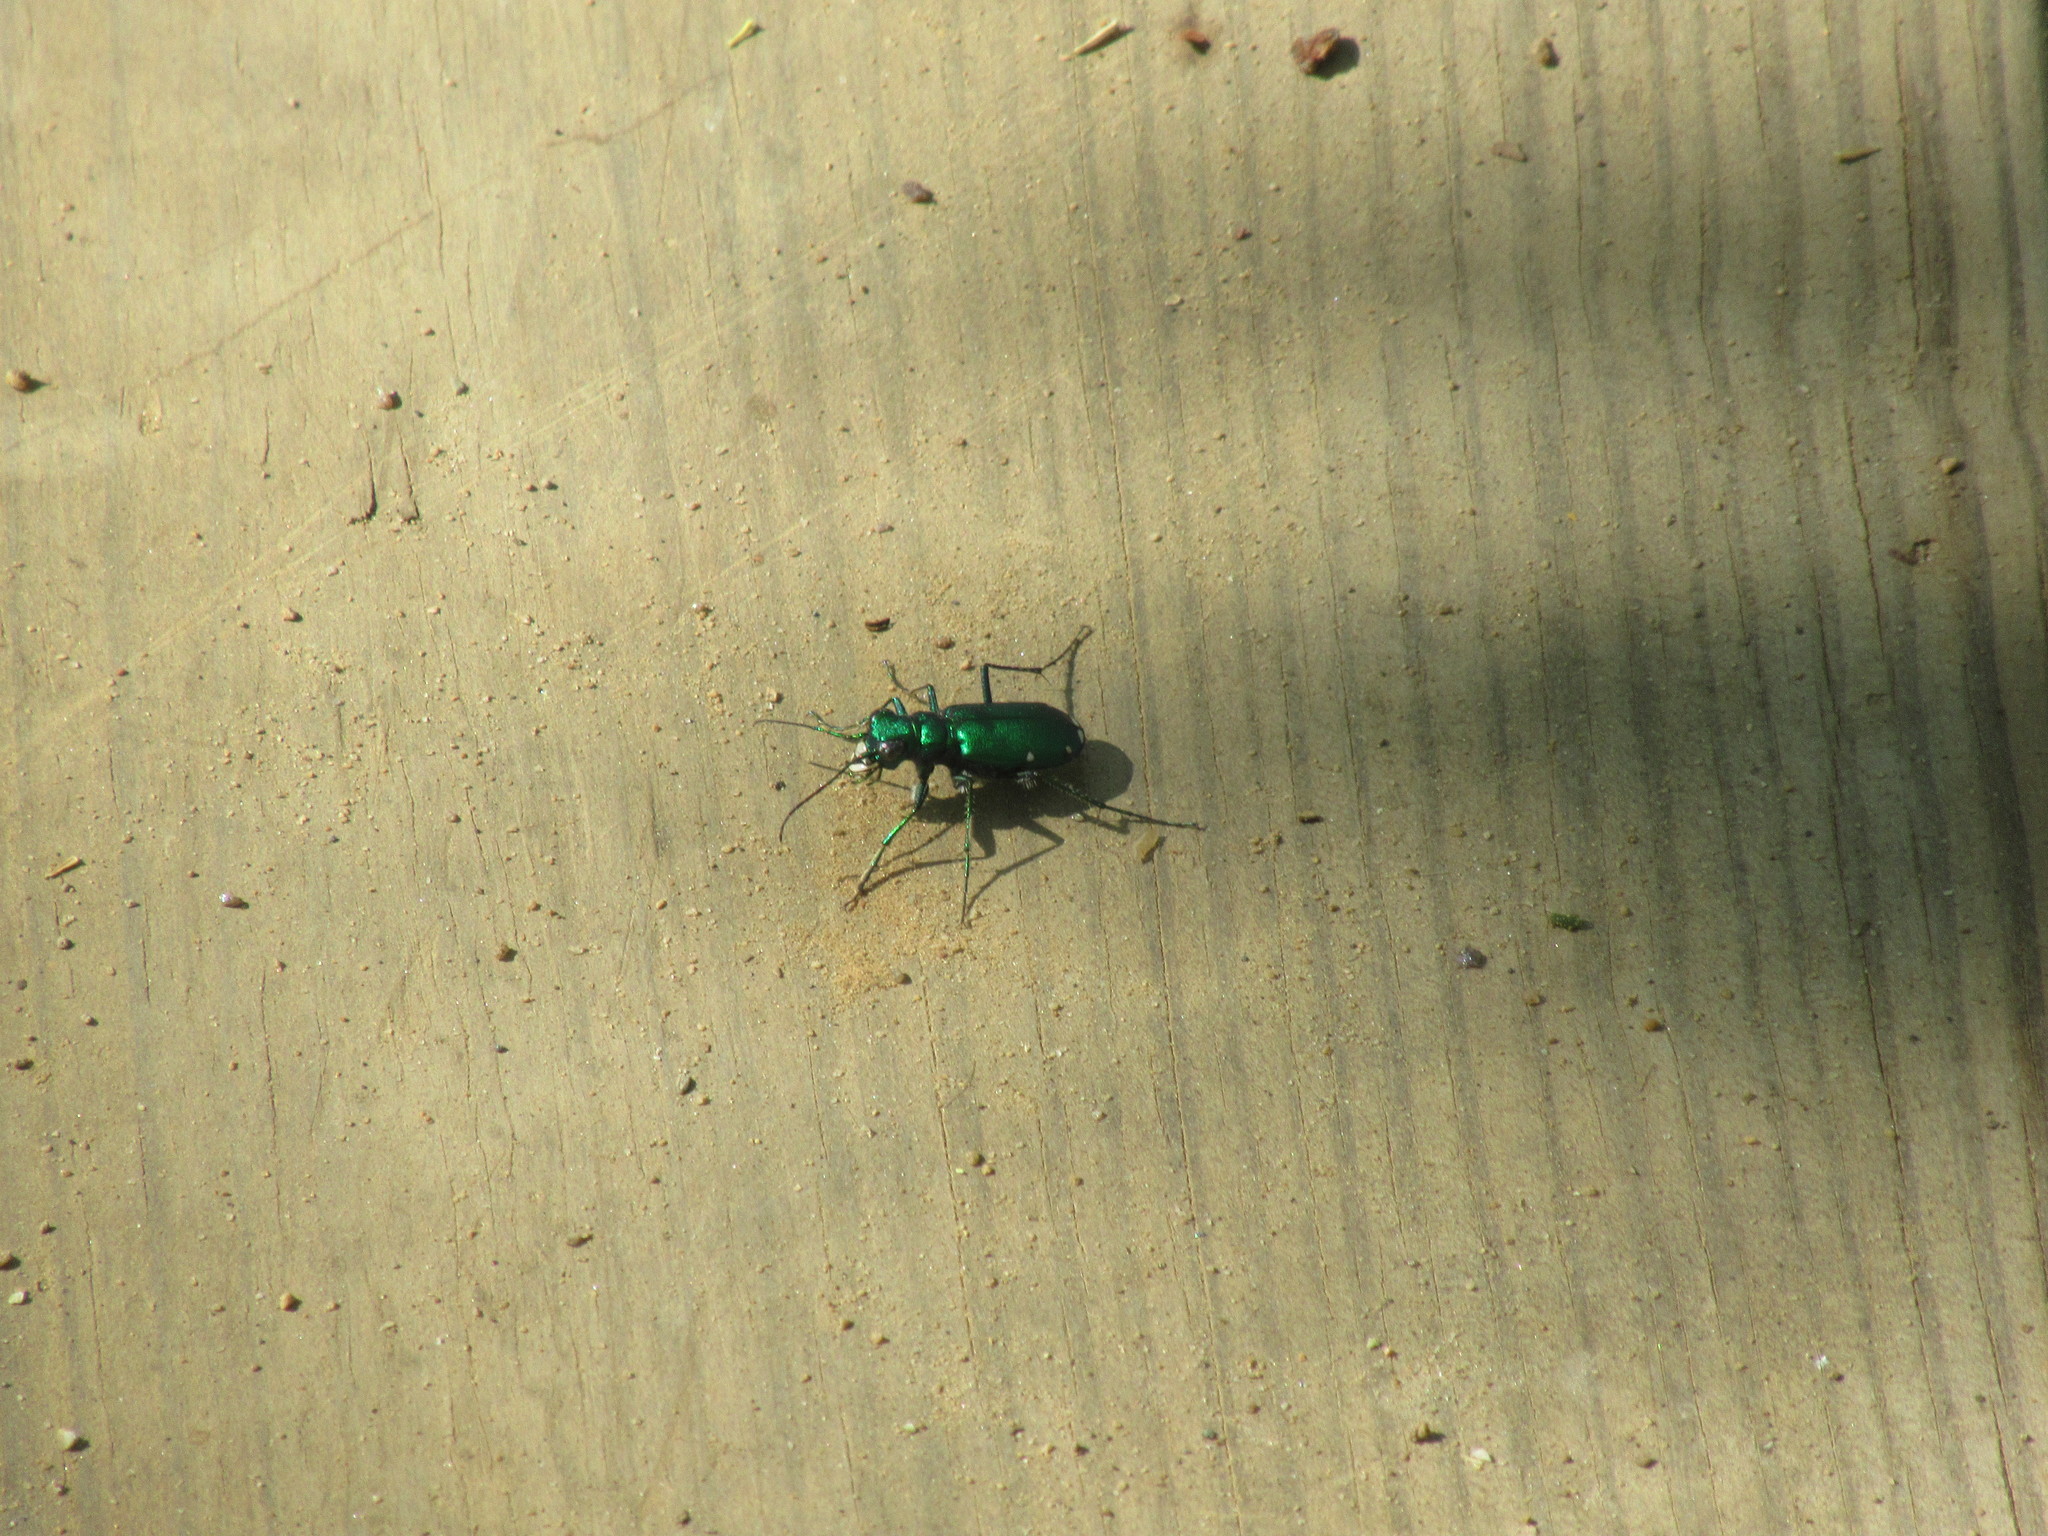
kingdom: Animalia
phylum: Arthropoda
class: Insecta
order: Coleoptera
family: Carabidae
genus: Cicindela
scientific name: Cicindela sexguttata
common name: Six-spotted tiger beetle
